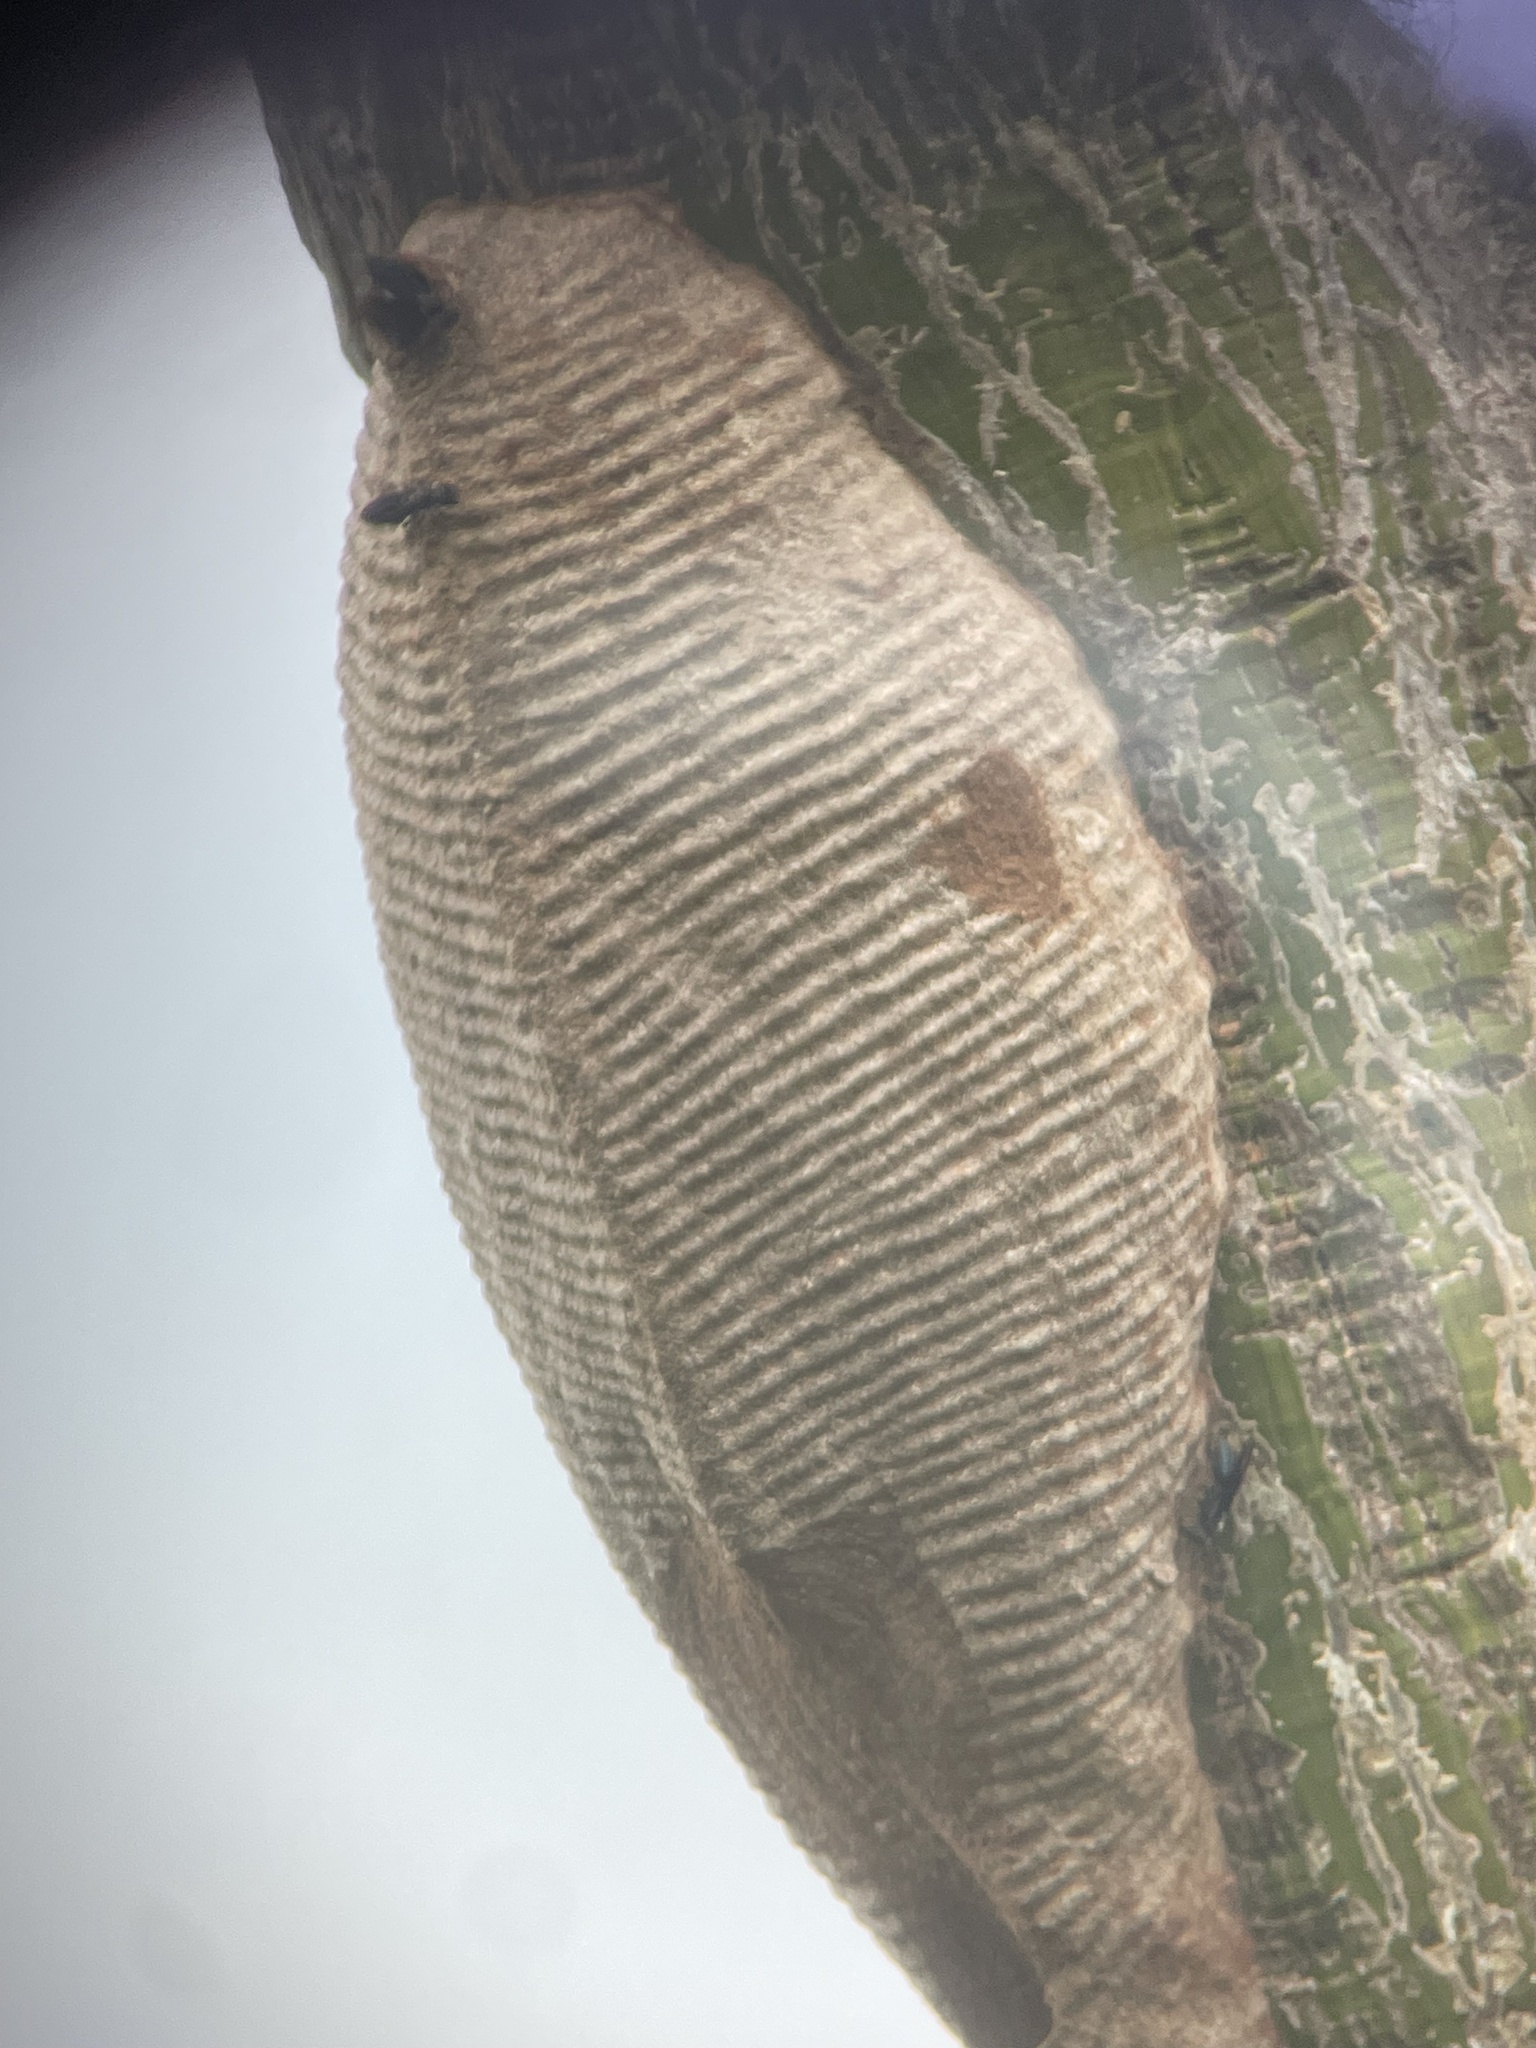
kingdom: Animalia
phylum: Arthropoda
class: Insecta
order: Hymenoptera
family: Vespidae
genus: Synoeca
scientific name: Synoeca septentrionalis
